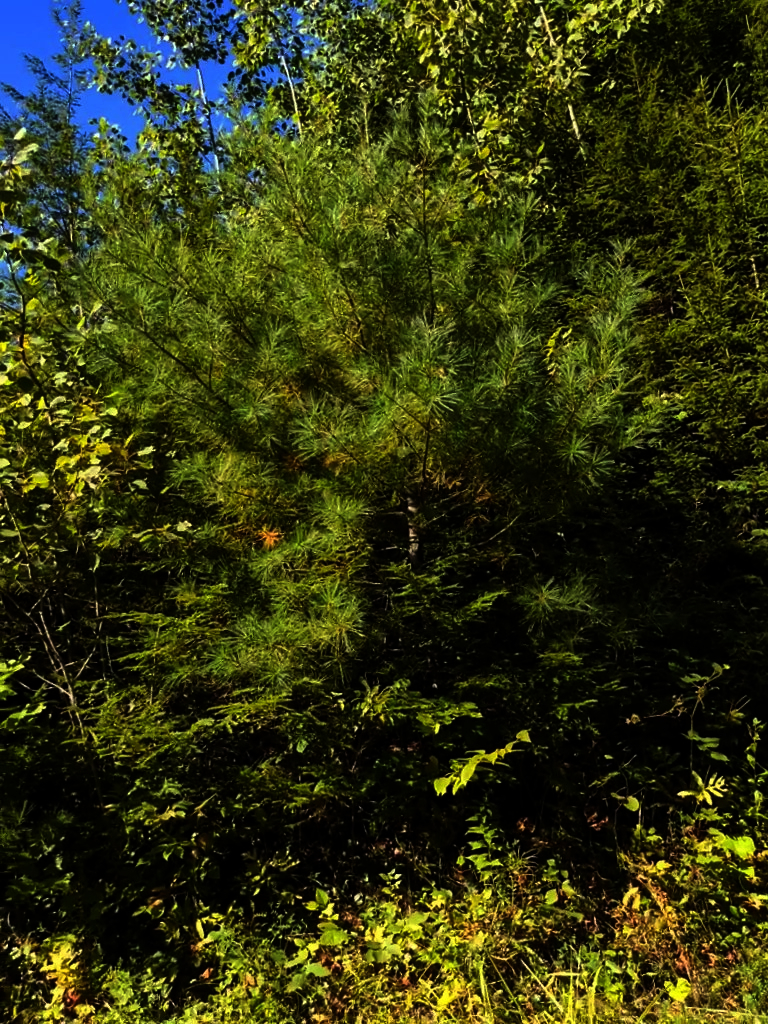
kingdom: Plantae
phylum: Tracheophyta
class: Pinopsida
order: Pinales
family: Pinaceae
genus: Pinus
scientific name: Pinus strobus
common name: Weymouth pine
